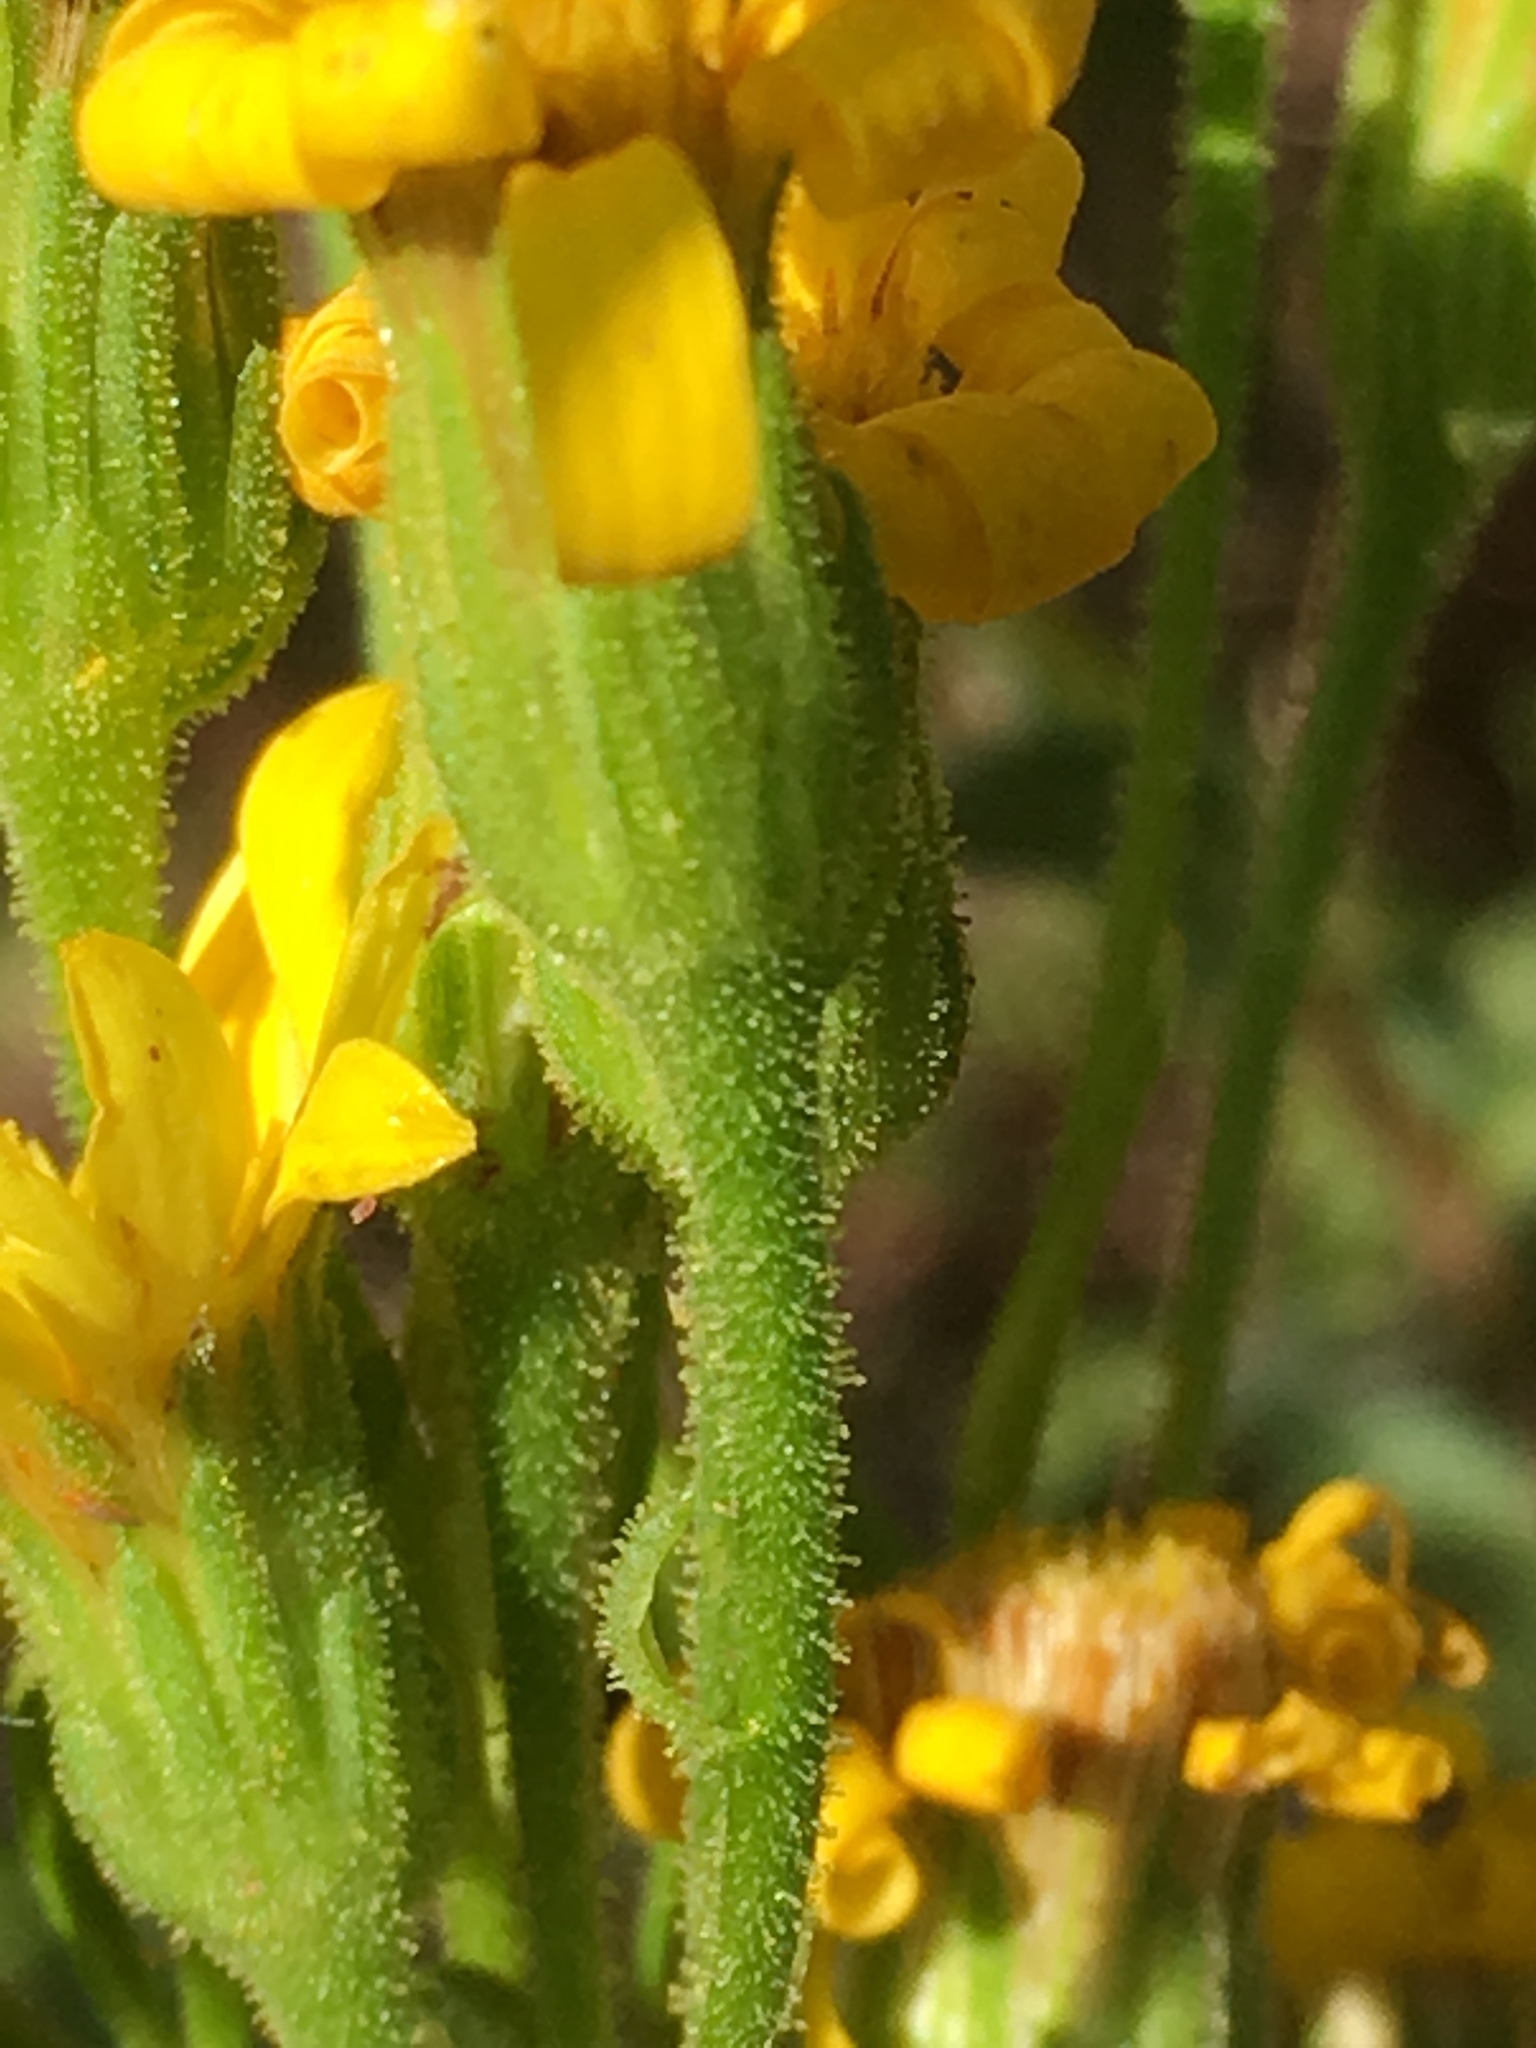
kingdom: Plantae
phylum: Tracheophyta
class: Magnoliopsida
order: Asterales
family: Asteraceae
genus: Chrysopsis
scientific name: Chrysopsis mariana
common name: Maryland golden-aster
